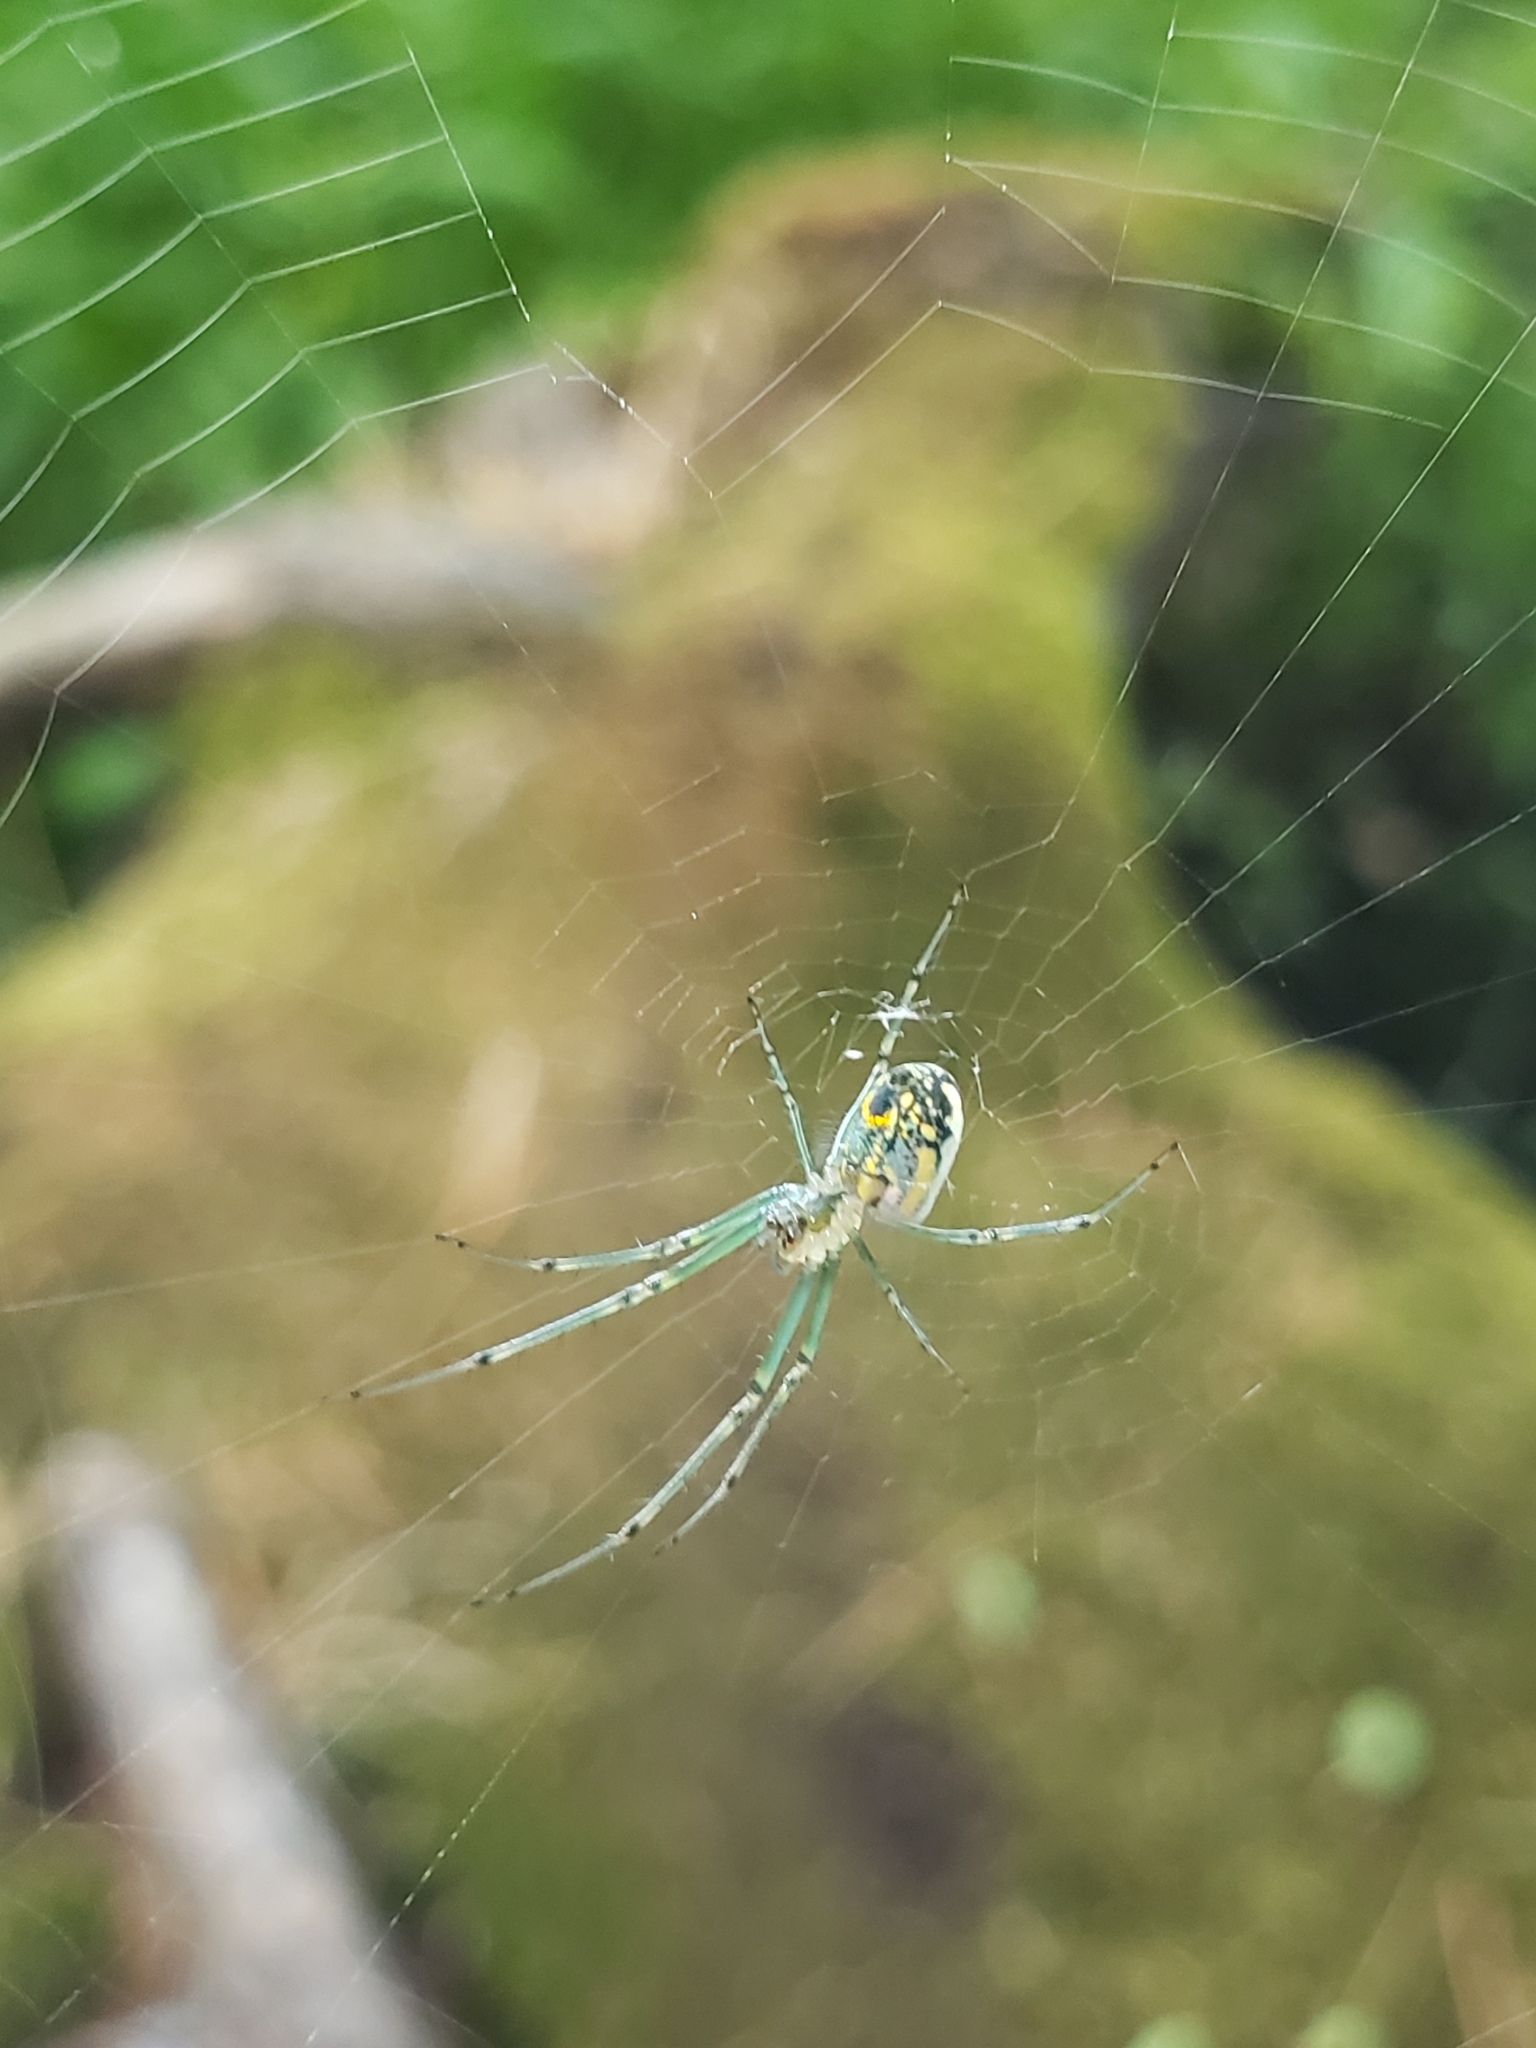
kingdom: Animalia
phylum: Arthropoda
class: Arachnida
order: Araneae
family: Tetragnathidae
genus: Leucauge
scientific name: Leucauge venusta
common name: Longjawed orb weavers
